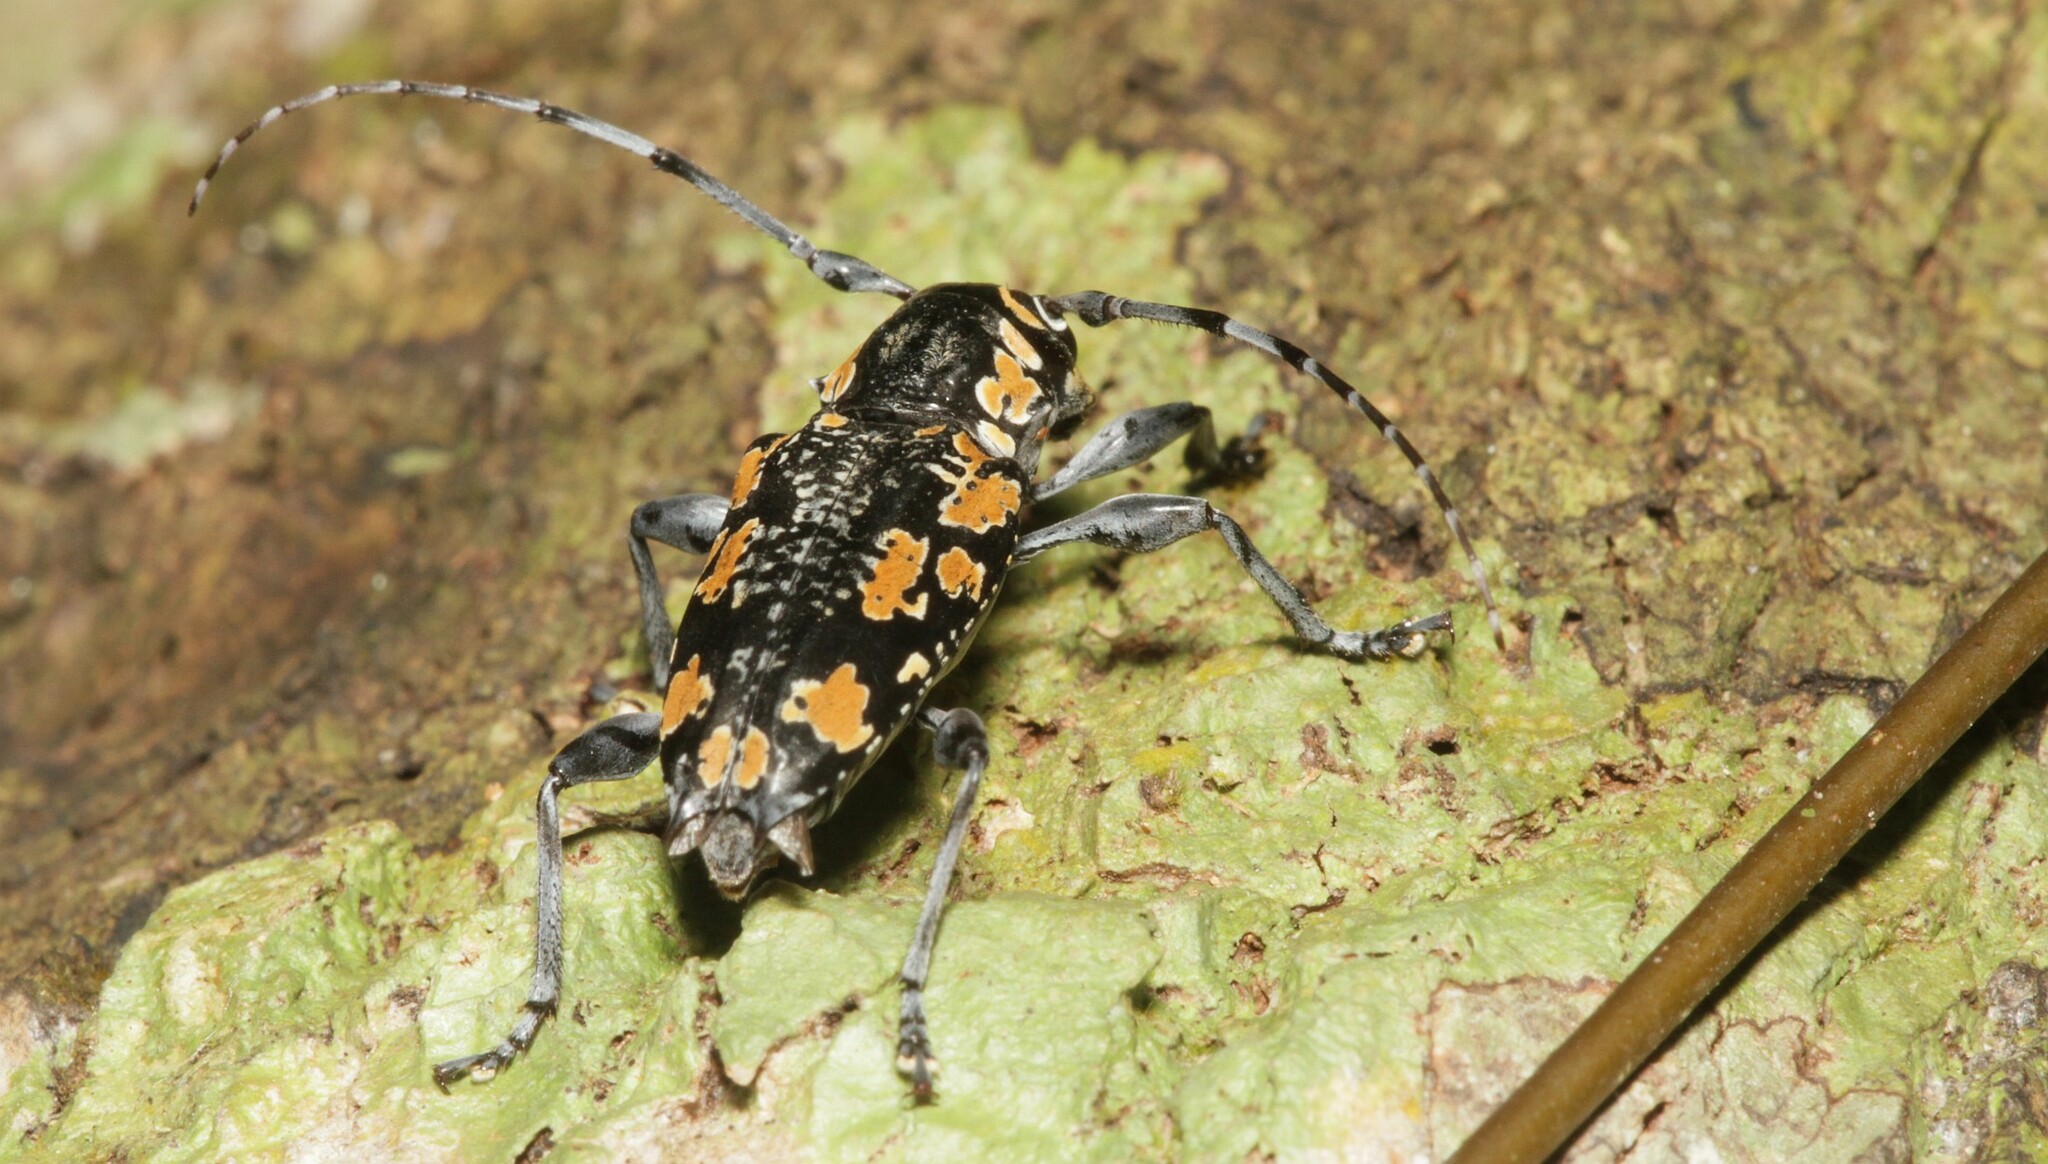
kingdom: Animalia
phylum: Arthropoda
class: Insecta
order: Coleoptera
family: Cerambycidae
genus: Aegomorphus
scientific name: Aegomorphus
